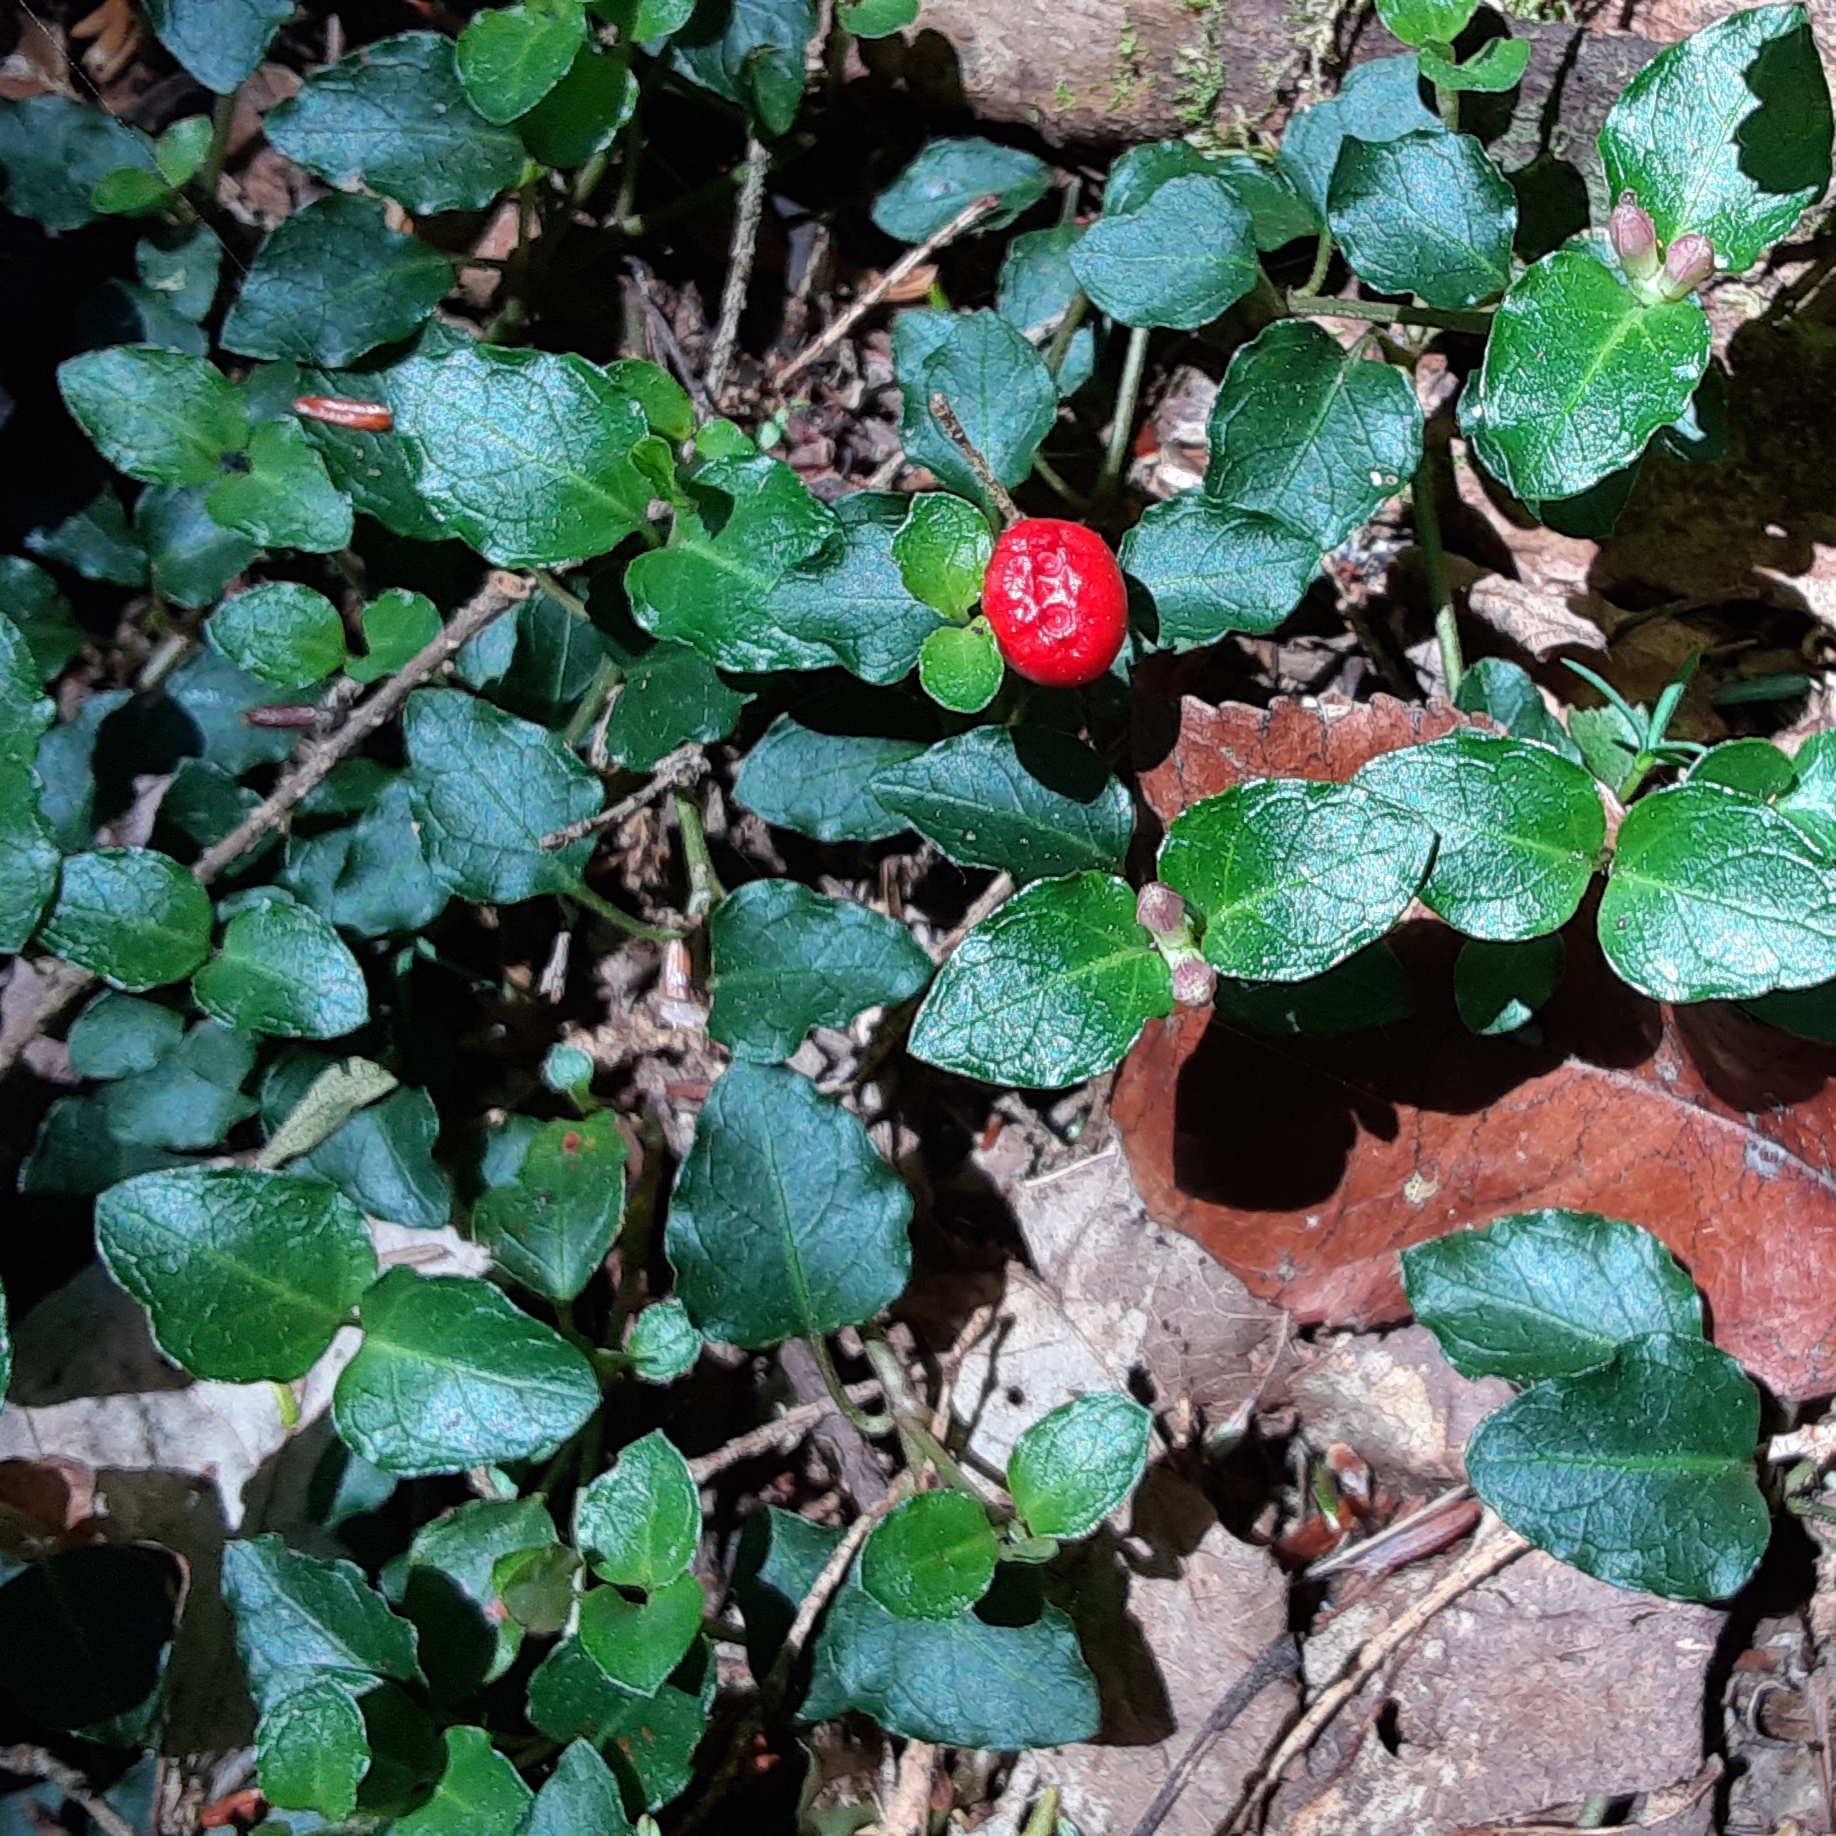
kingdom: Plantae
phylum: Tracheophyta
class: Magnoliopsida
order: Gentianales
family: Rubiaceae
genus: Mitchella
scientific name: Mitchella repens
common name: Partridge-berry
